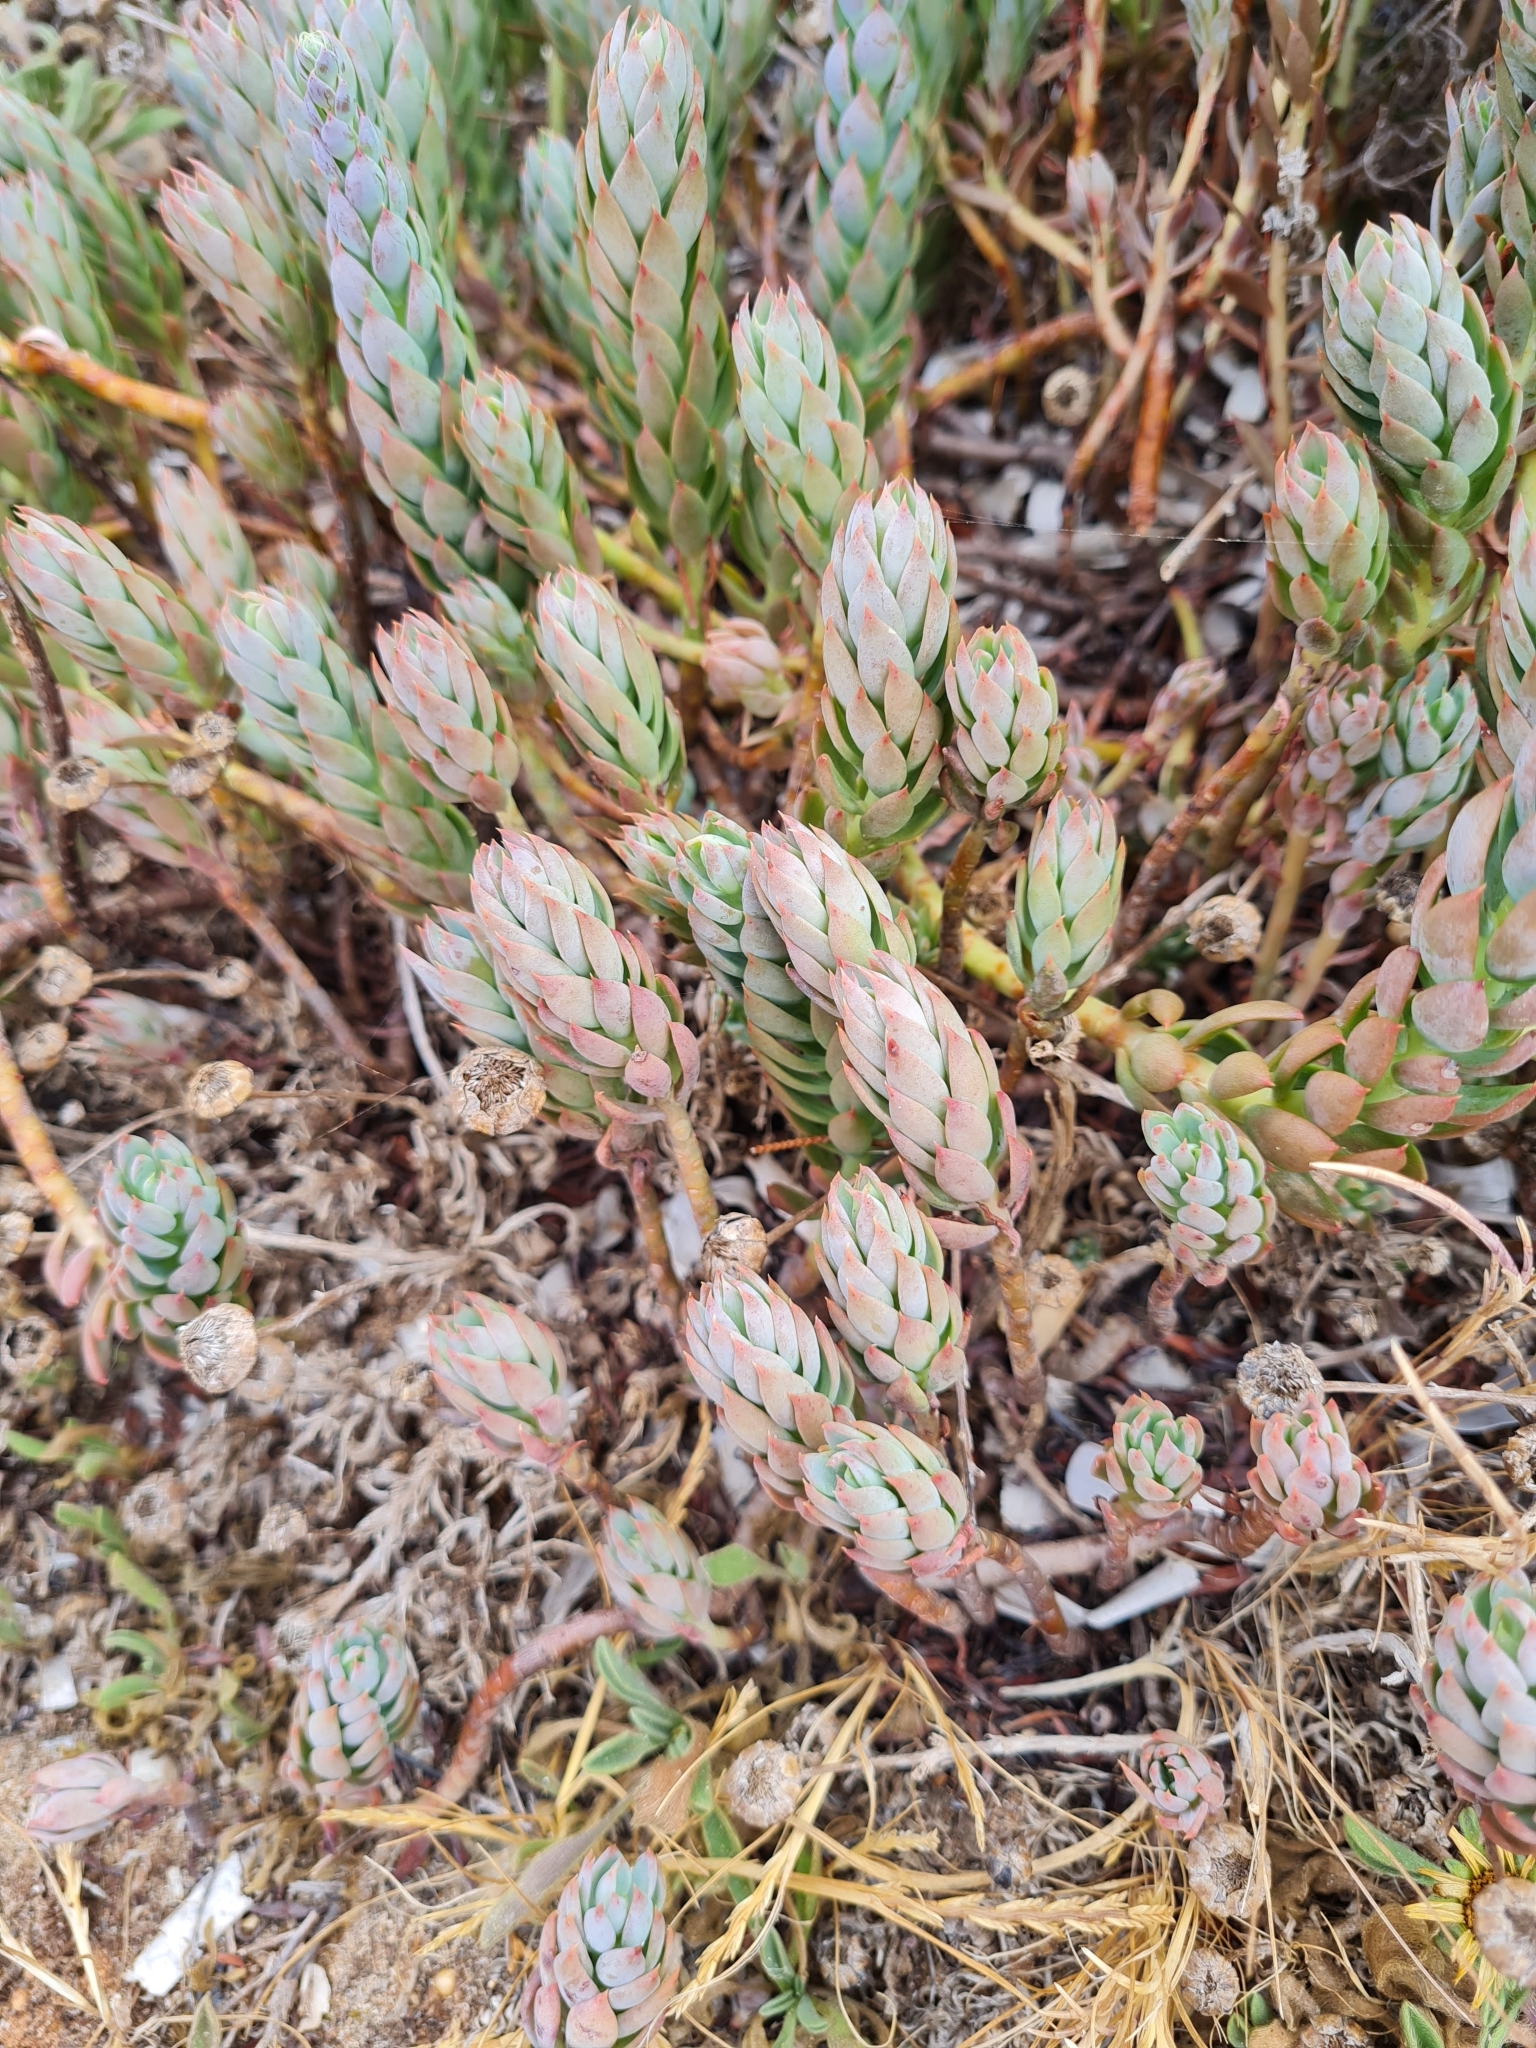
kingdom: Plantae
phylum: Tracheophyta
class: Magnoliopsida
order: Saxifragales
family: Crassulaceae
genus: Petrosedum
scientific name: Petrosedum sediforme
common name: Pale stonecrop
